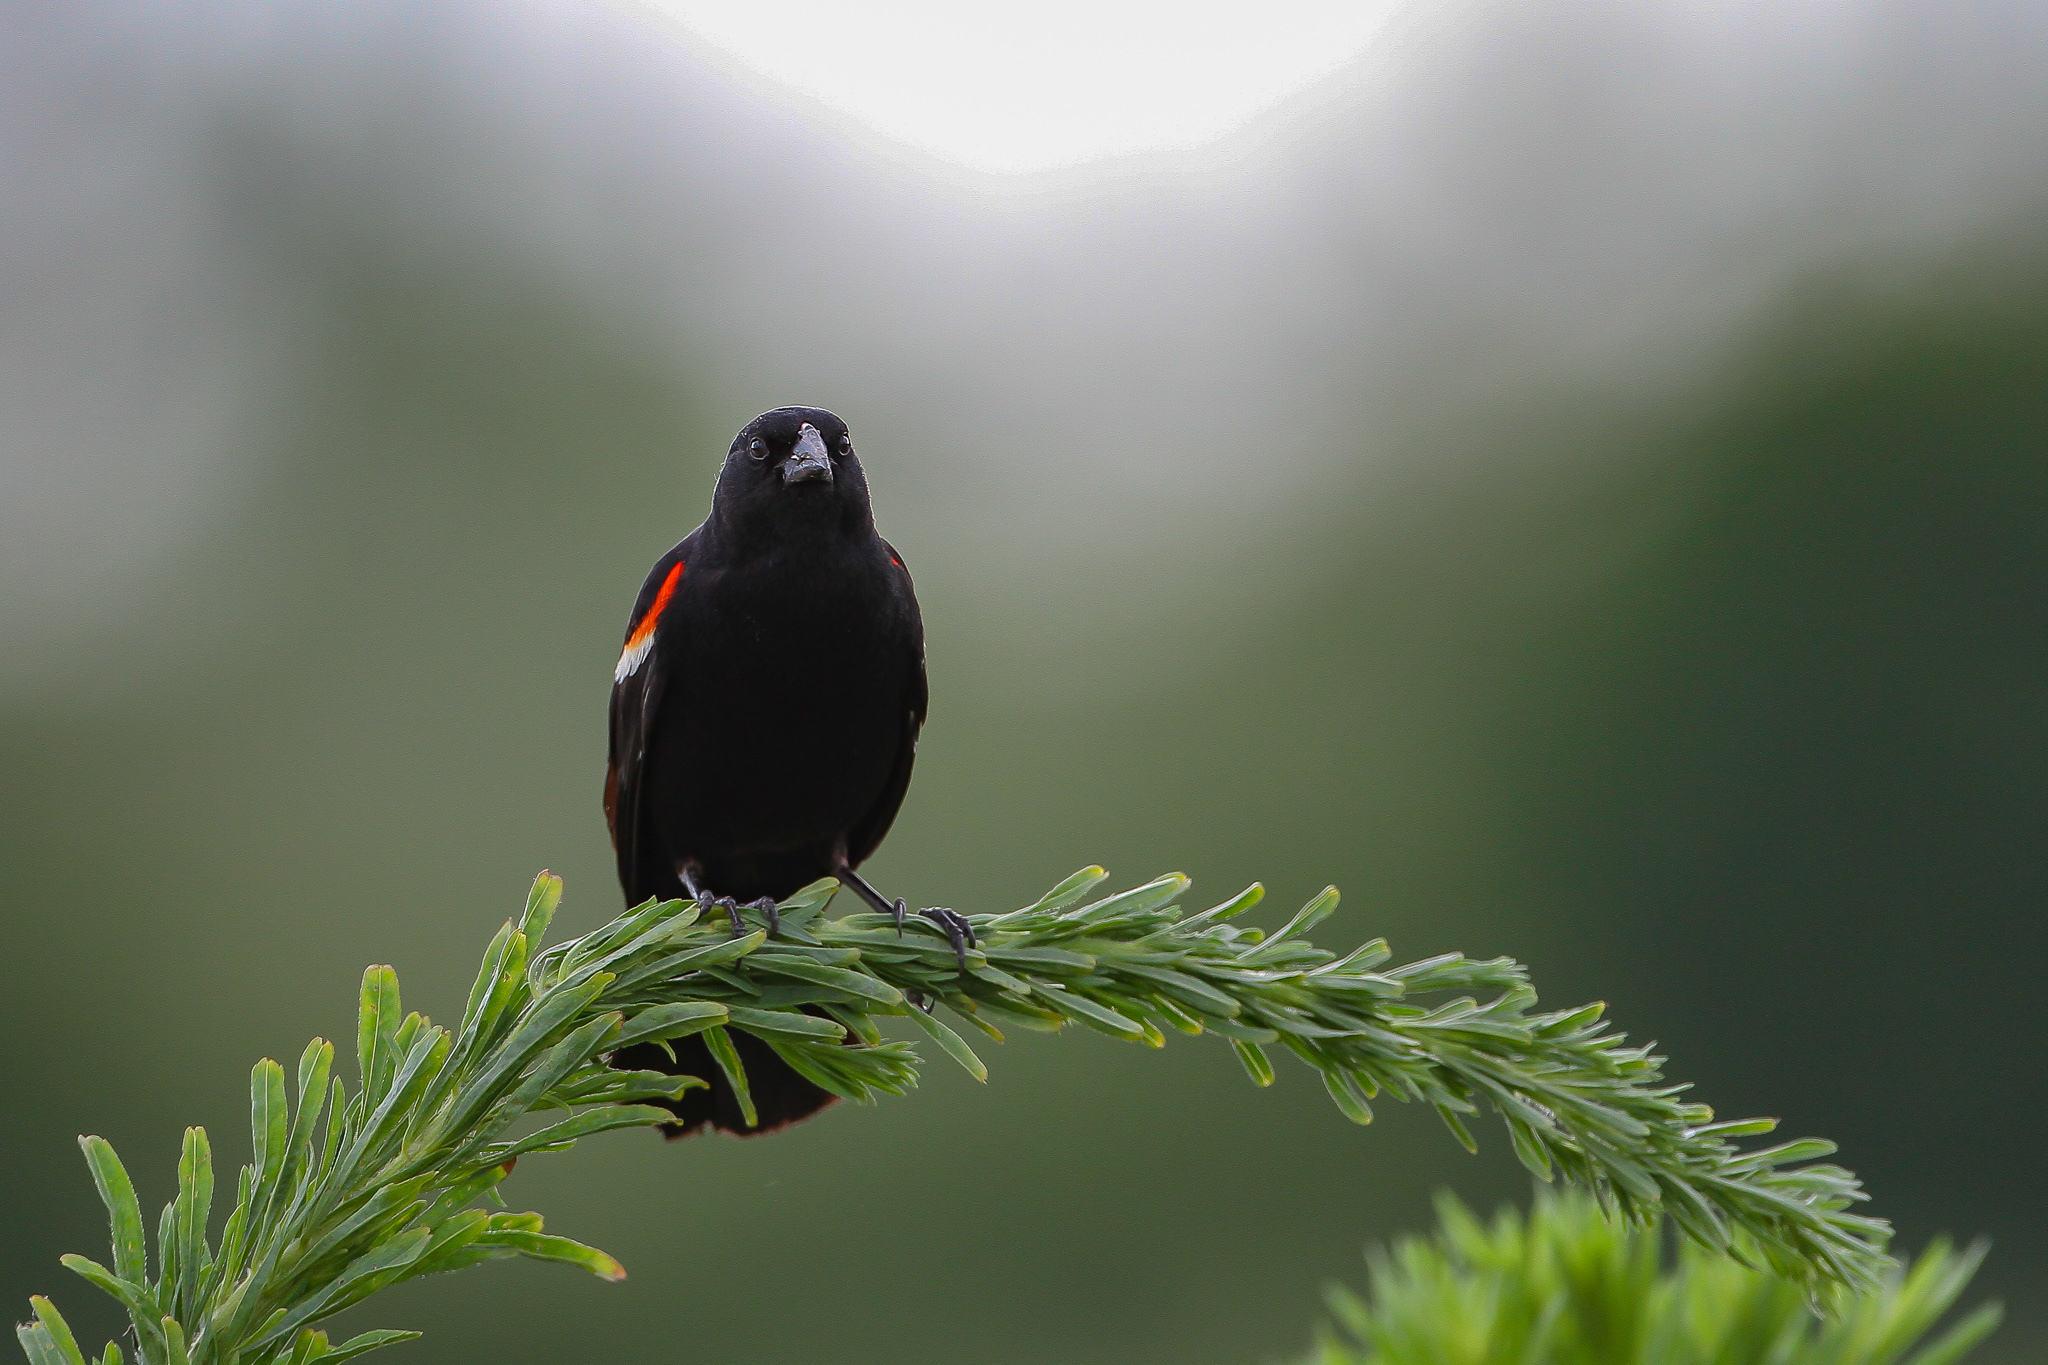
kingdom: Animalia
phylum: Chordata
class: Aves
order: Passeriformes
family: Icteridae
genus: Agelaius
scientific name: Agelaius phoeniceus
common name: Red-winged blackbird
